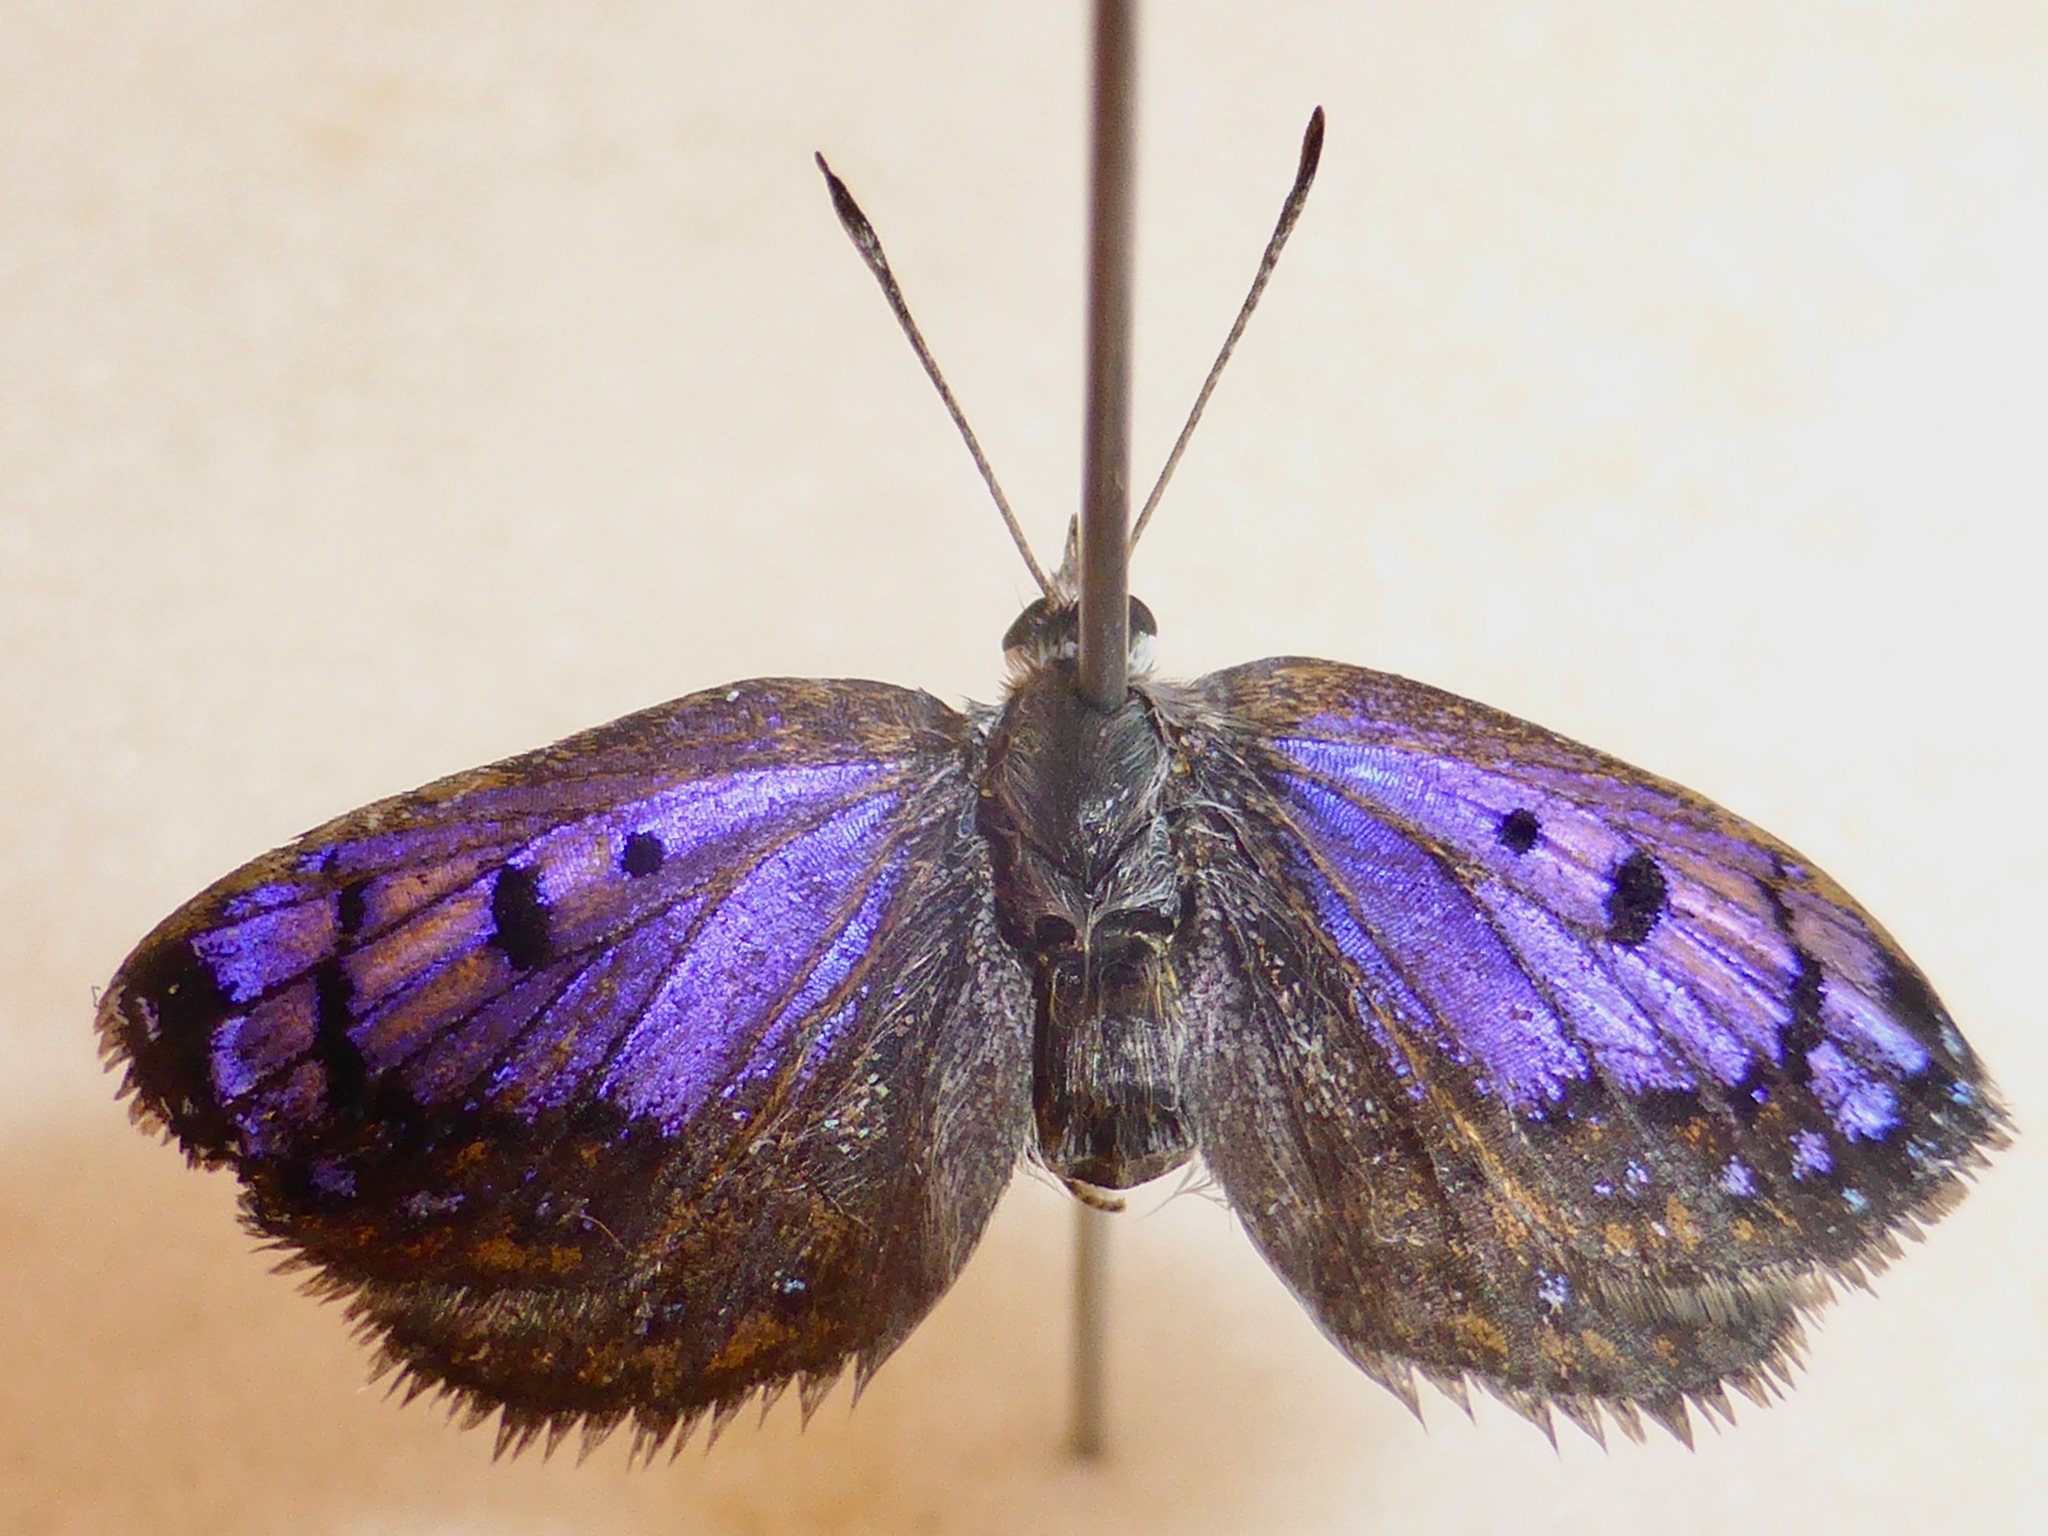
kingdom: Animalia
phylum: Arthropoda
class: Insecta
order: Lepidoptera
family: Lycaenidae
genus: Lycaena
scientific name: Lycaena tama
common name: Canterbury alpine boulder copper
